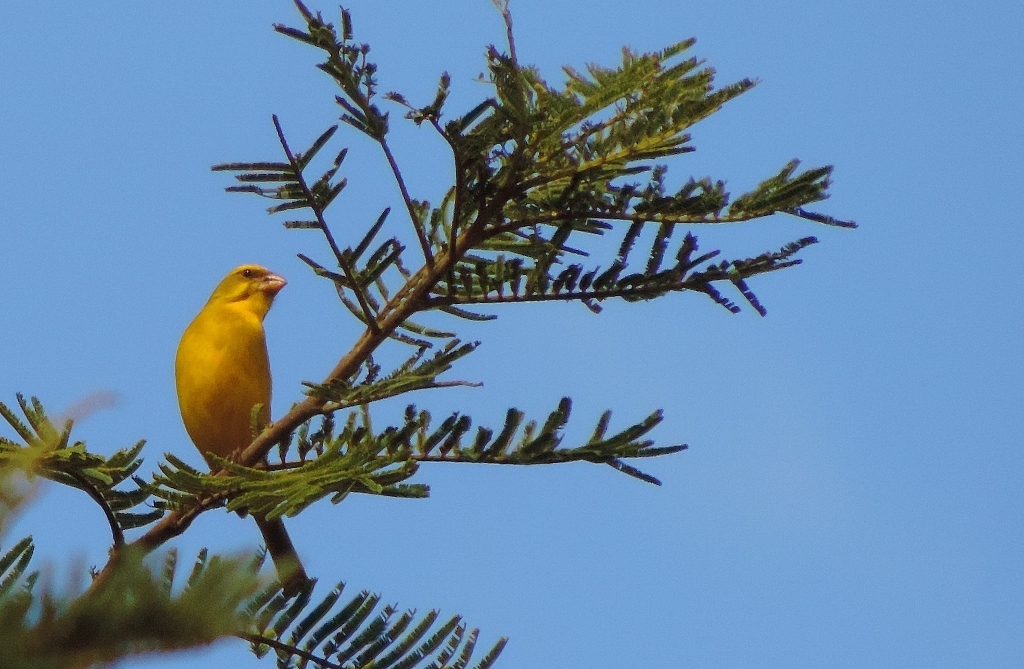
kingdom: Animalia
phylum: Chordata
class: Aves
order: Passeriformes
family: Fringillidae
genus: Crithagra
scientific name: Crithagra sulphurata
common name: Brimstone canary
